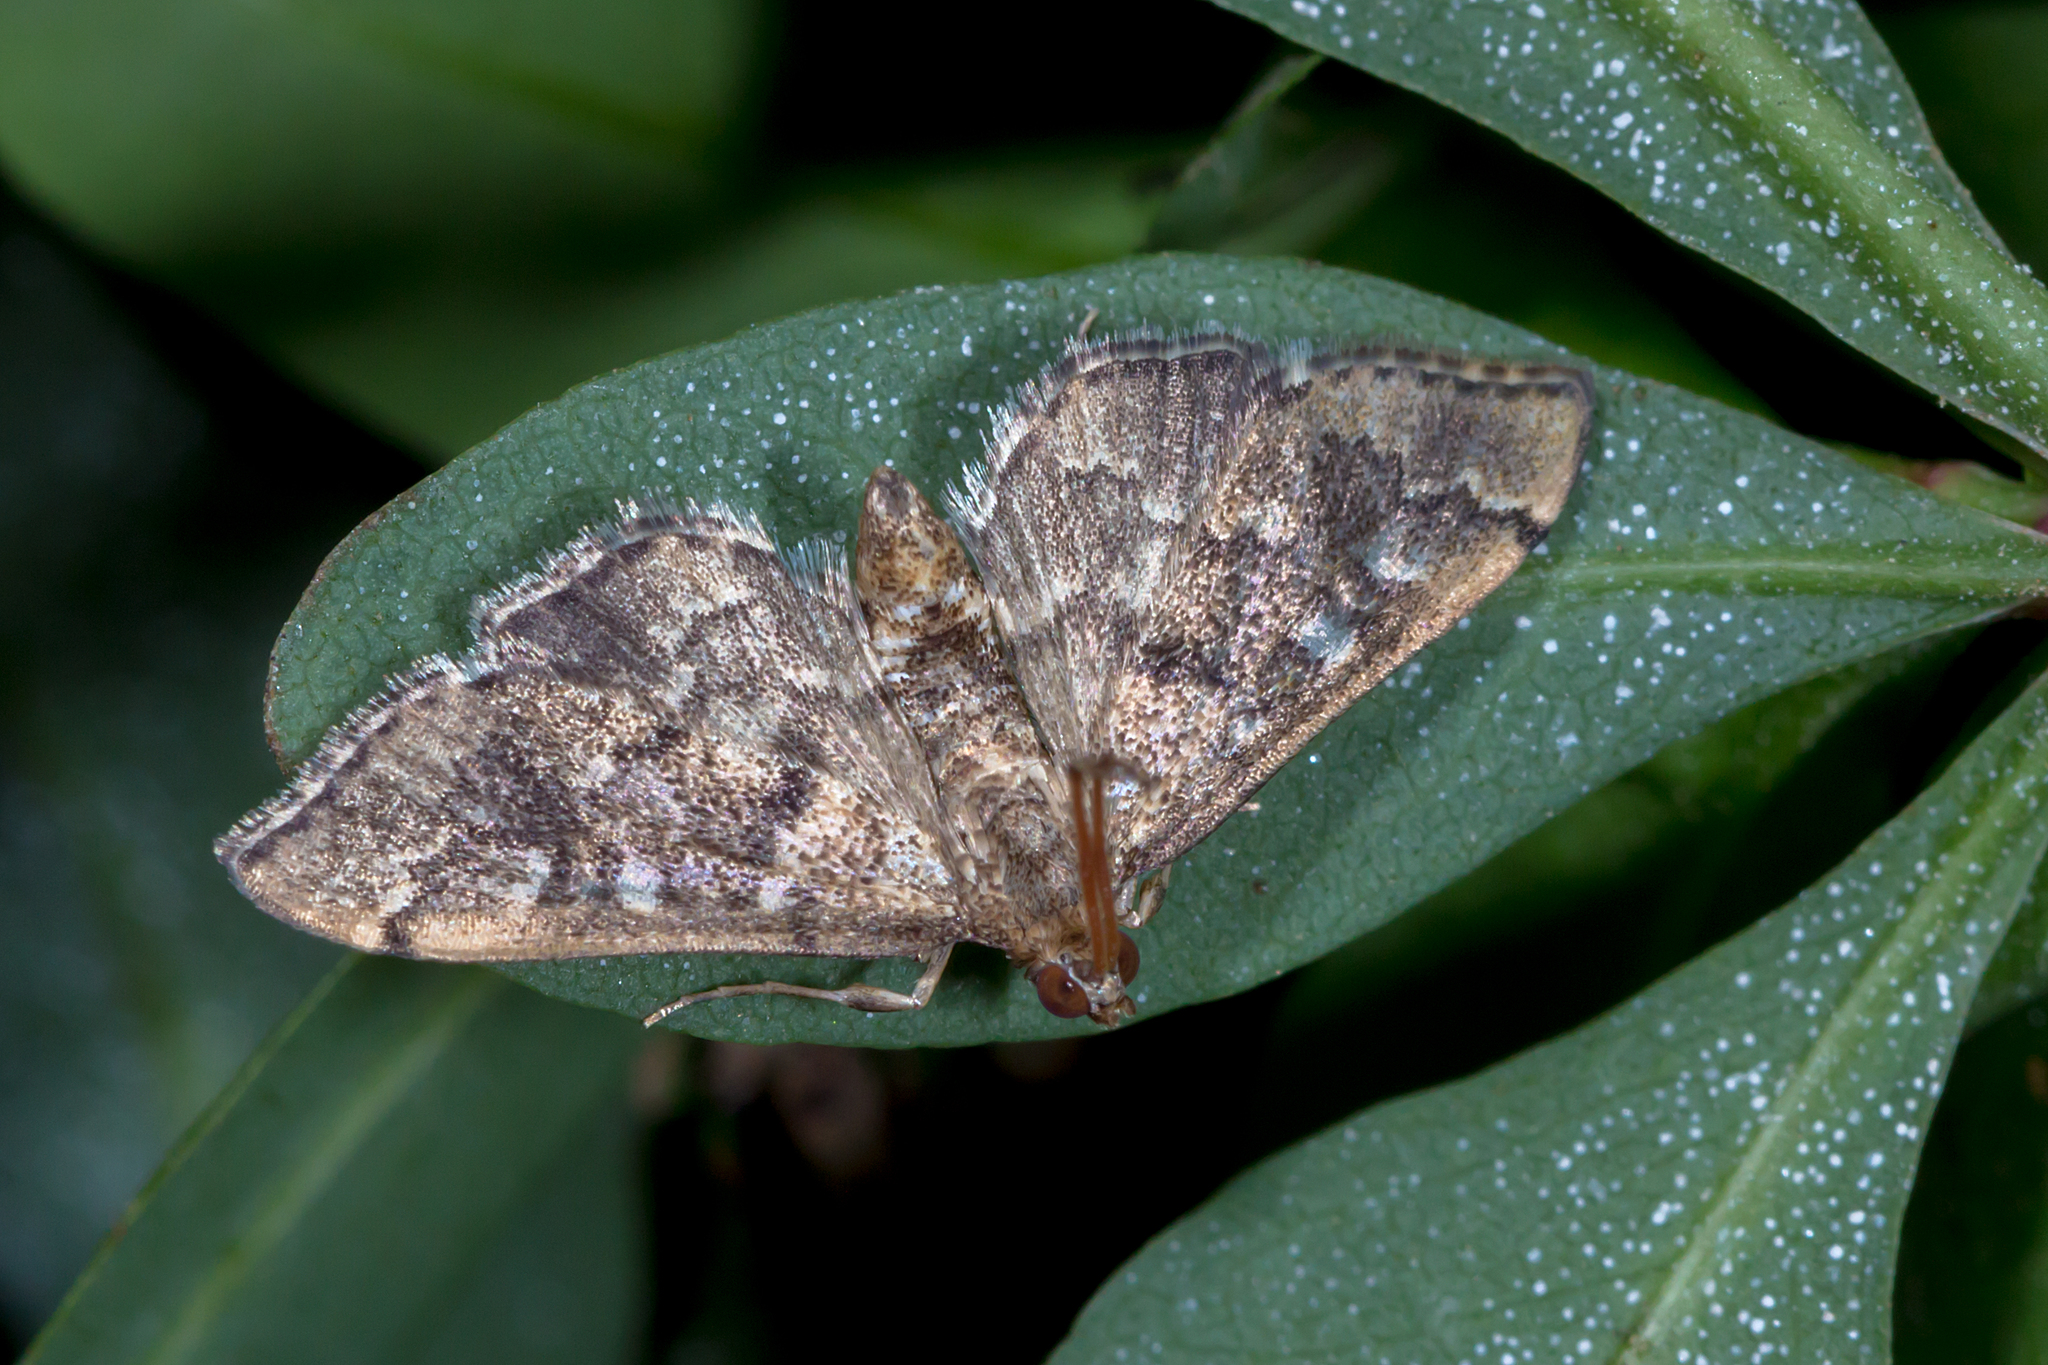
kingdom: Animalia
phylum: Arthropoda
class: Insecta
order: Lepidoptera
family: Crambidae
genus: Nacoleia
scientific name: Nacoleia rhoeoalis
